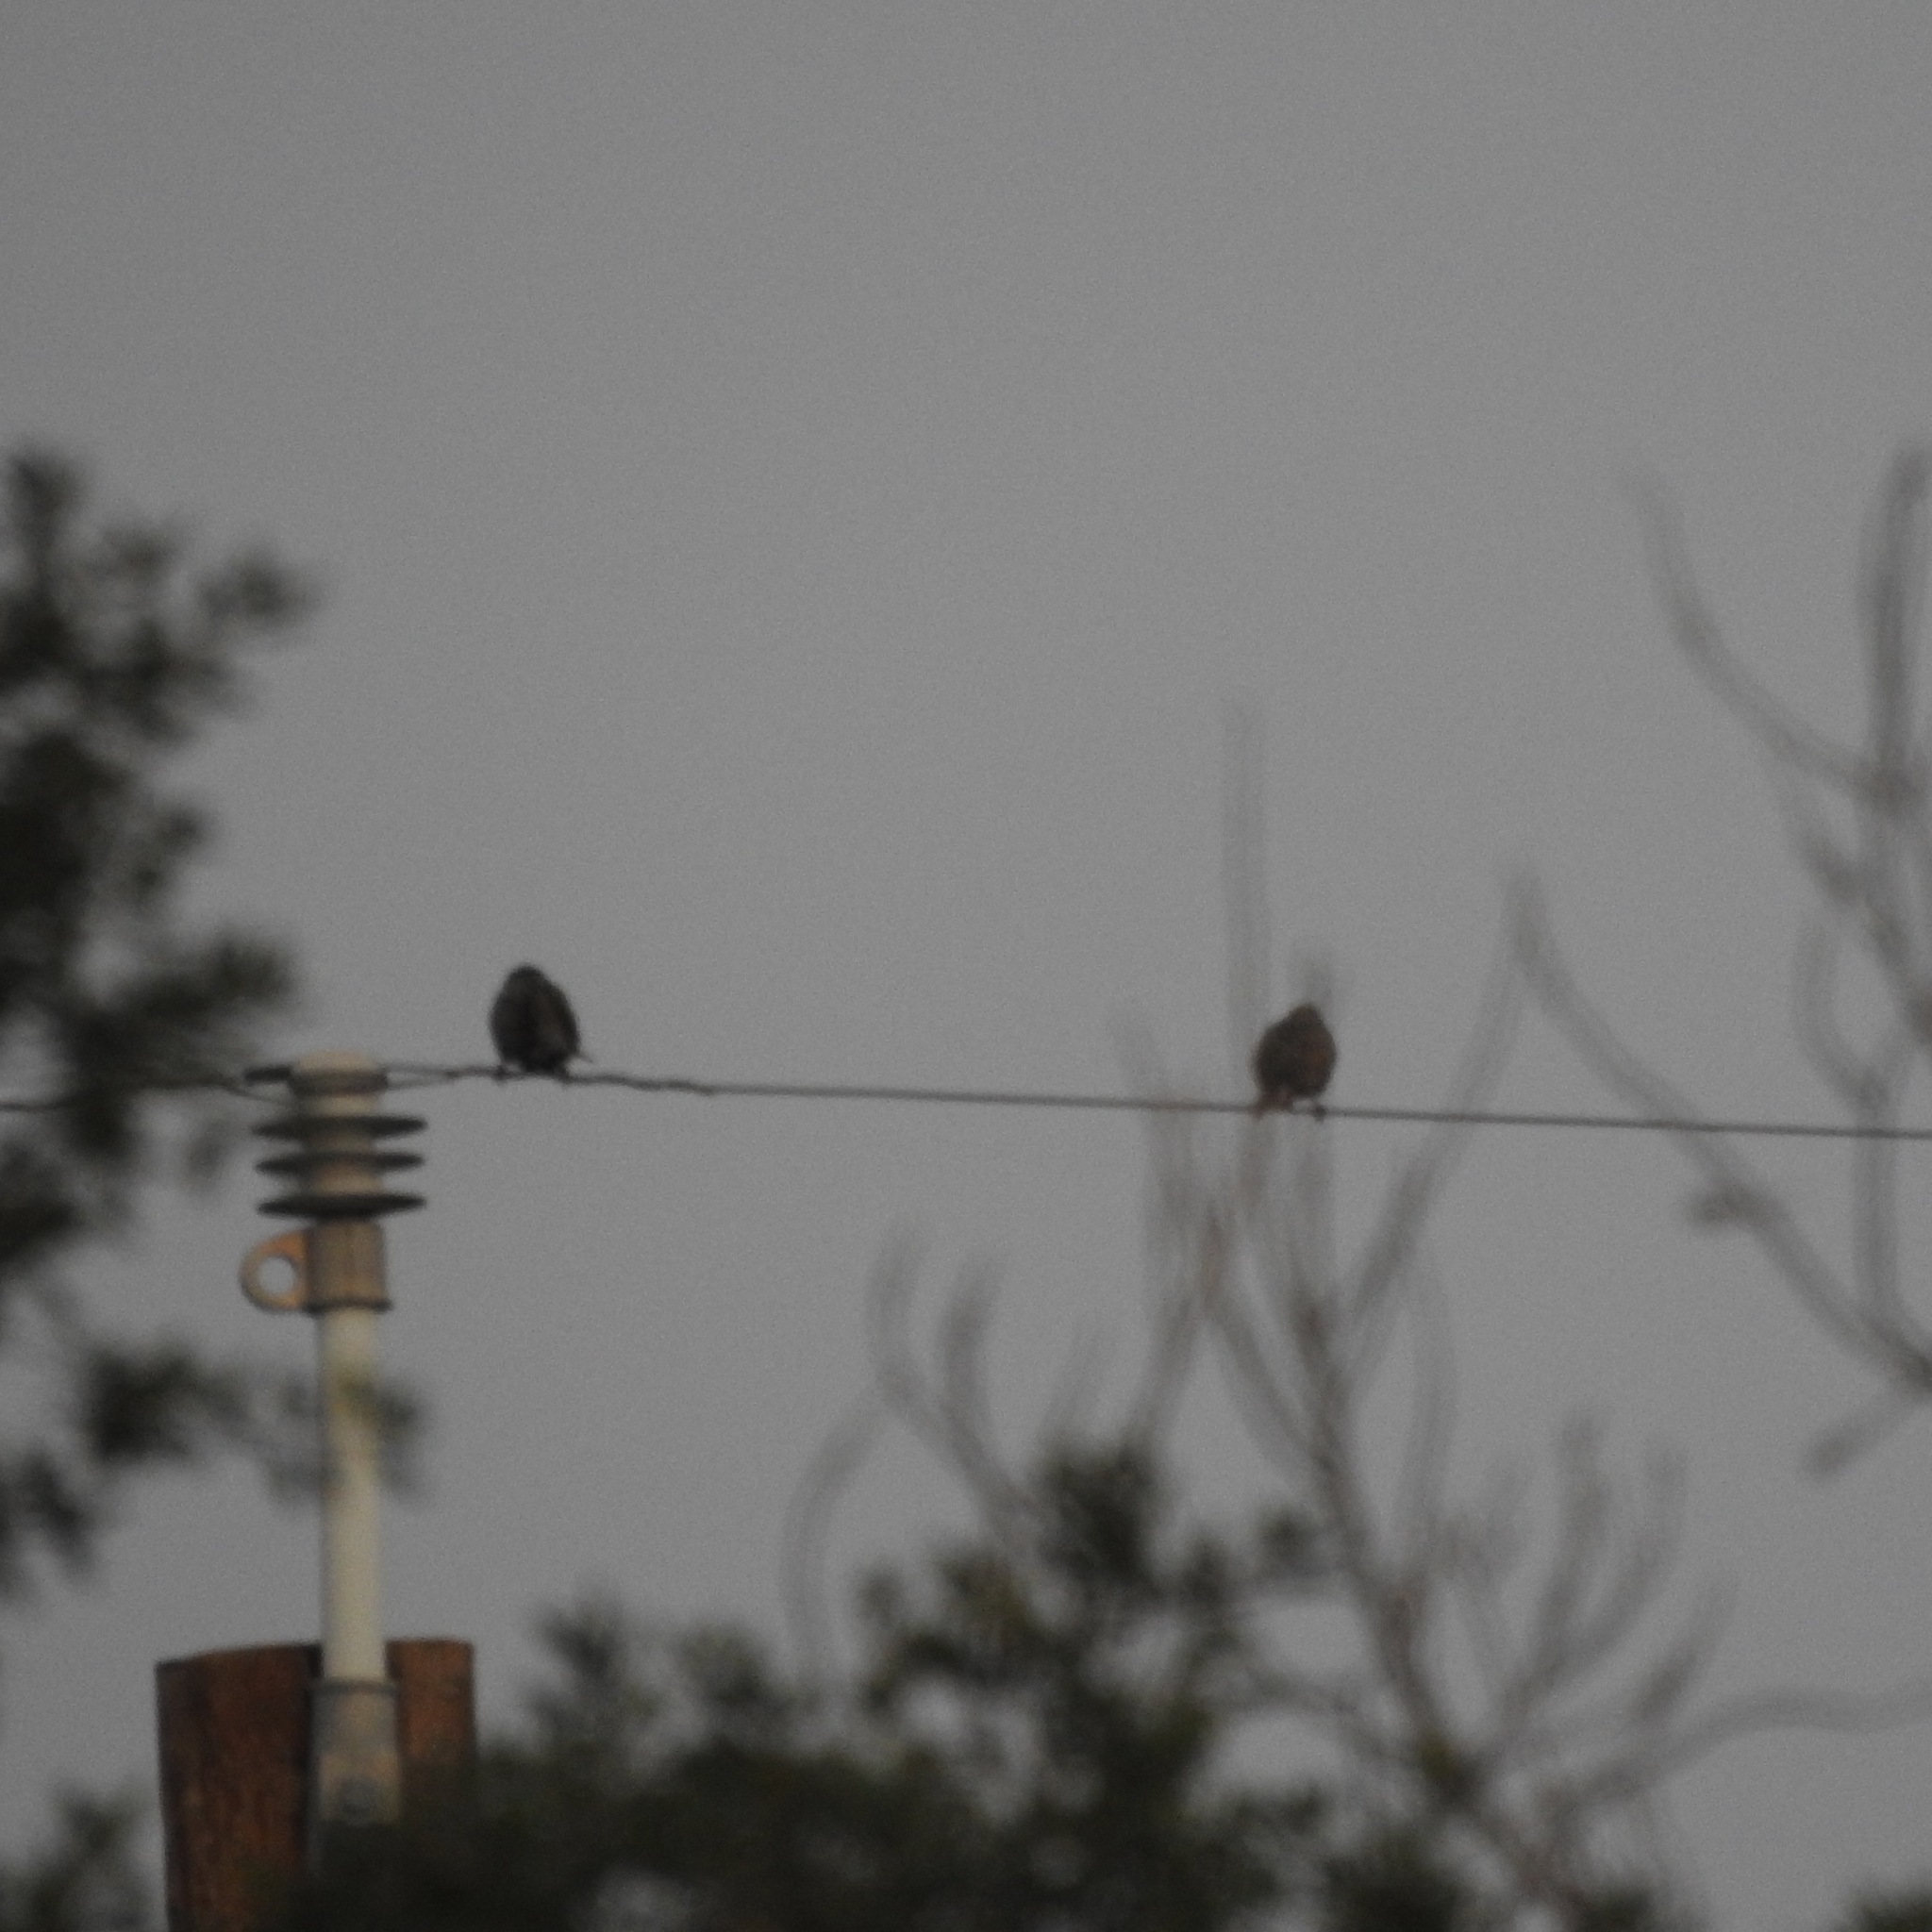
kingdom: Animalia
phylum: Chordata
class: Aves
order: Passeriformes
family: Sturnidae
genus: Sturnus
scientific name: Sturnus vulgaris
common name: Common starling
